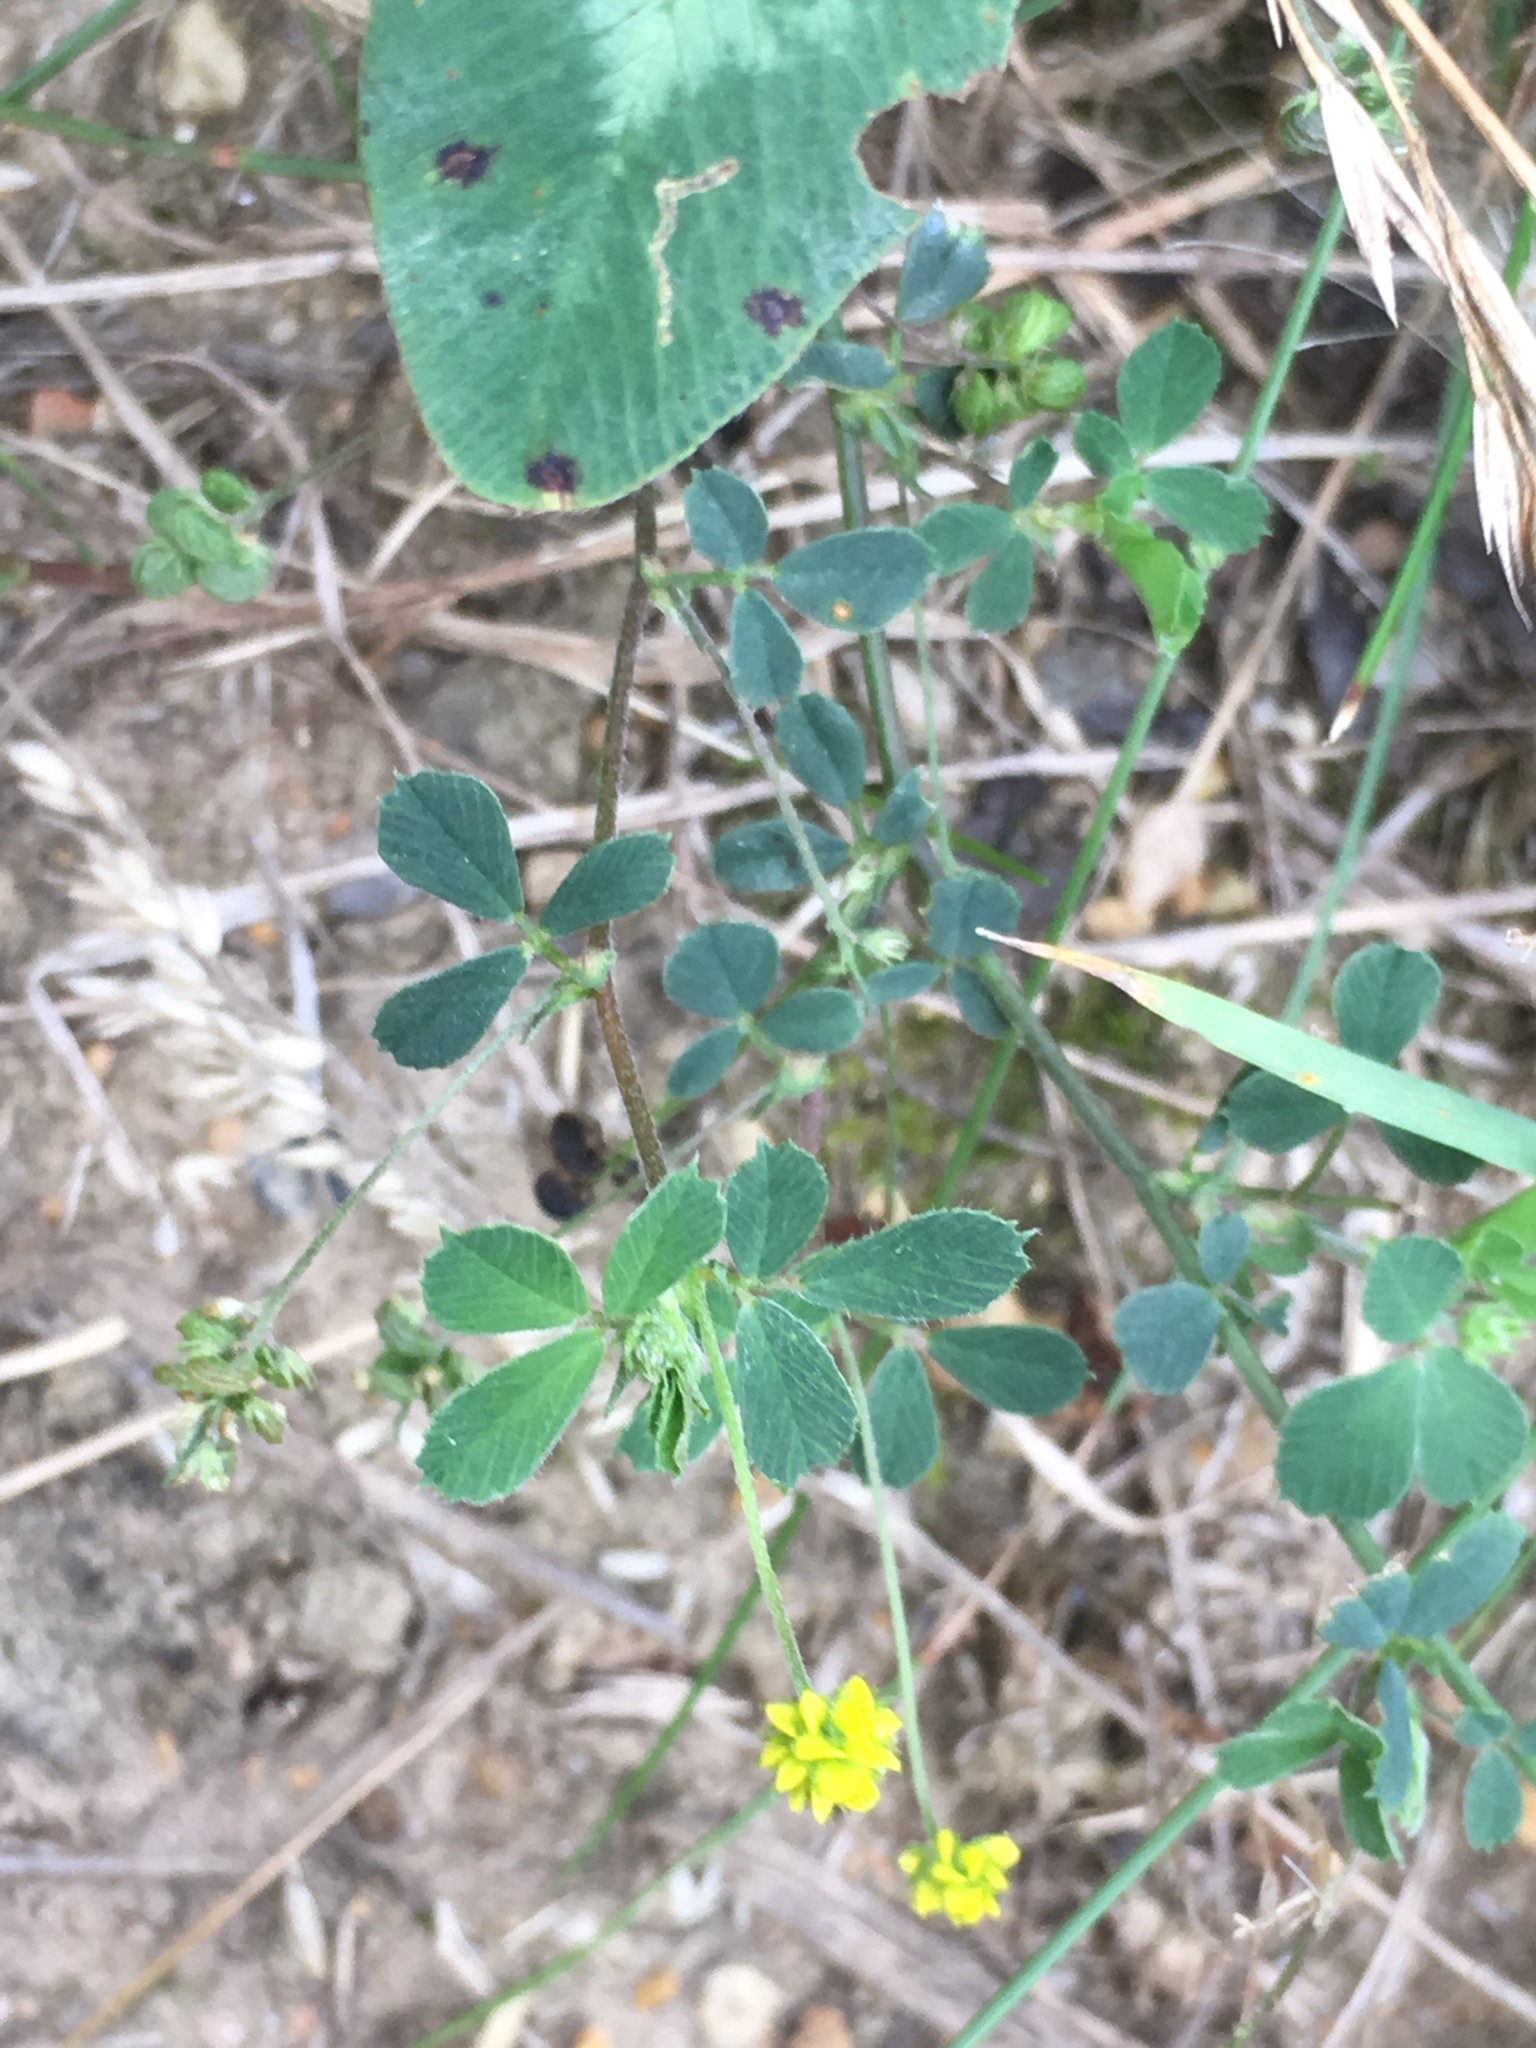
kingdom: Plantae
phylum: Tracheophyta
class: Magnoliopsida
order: Fabales
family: Fabaceae
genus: Medicago
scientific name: Medicago lupulina
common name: Black medick
